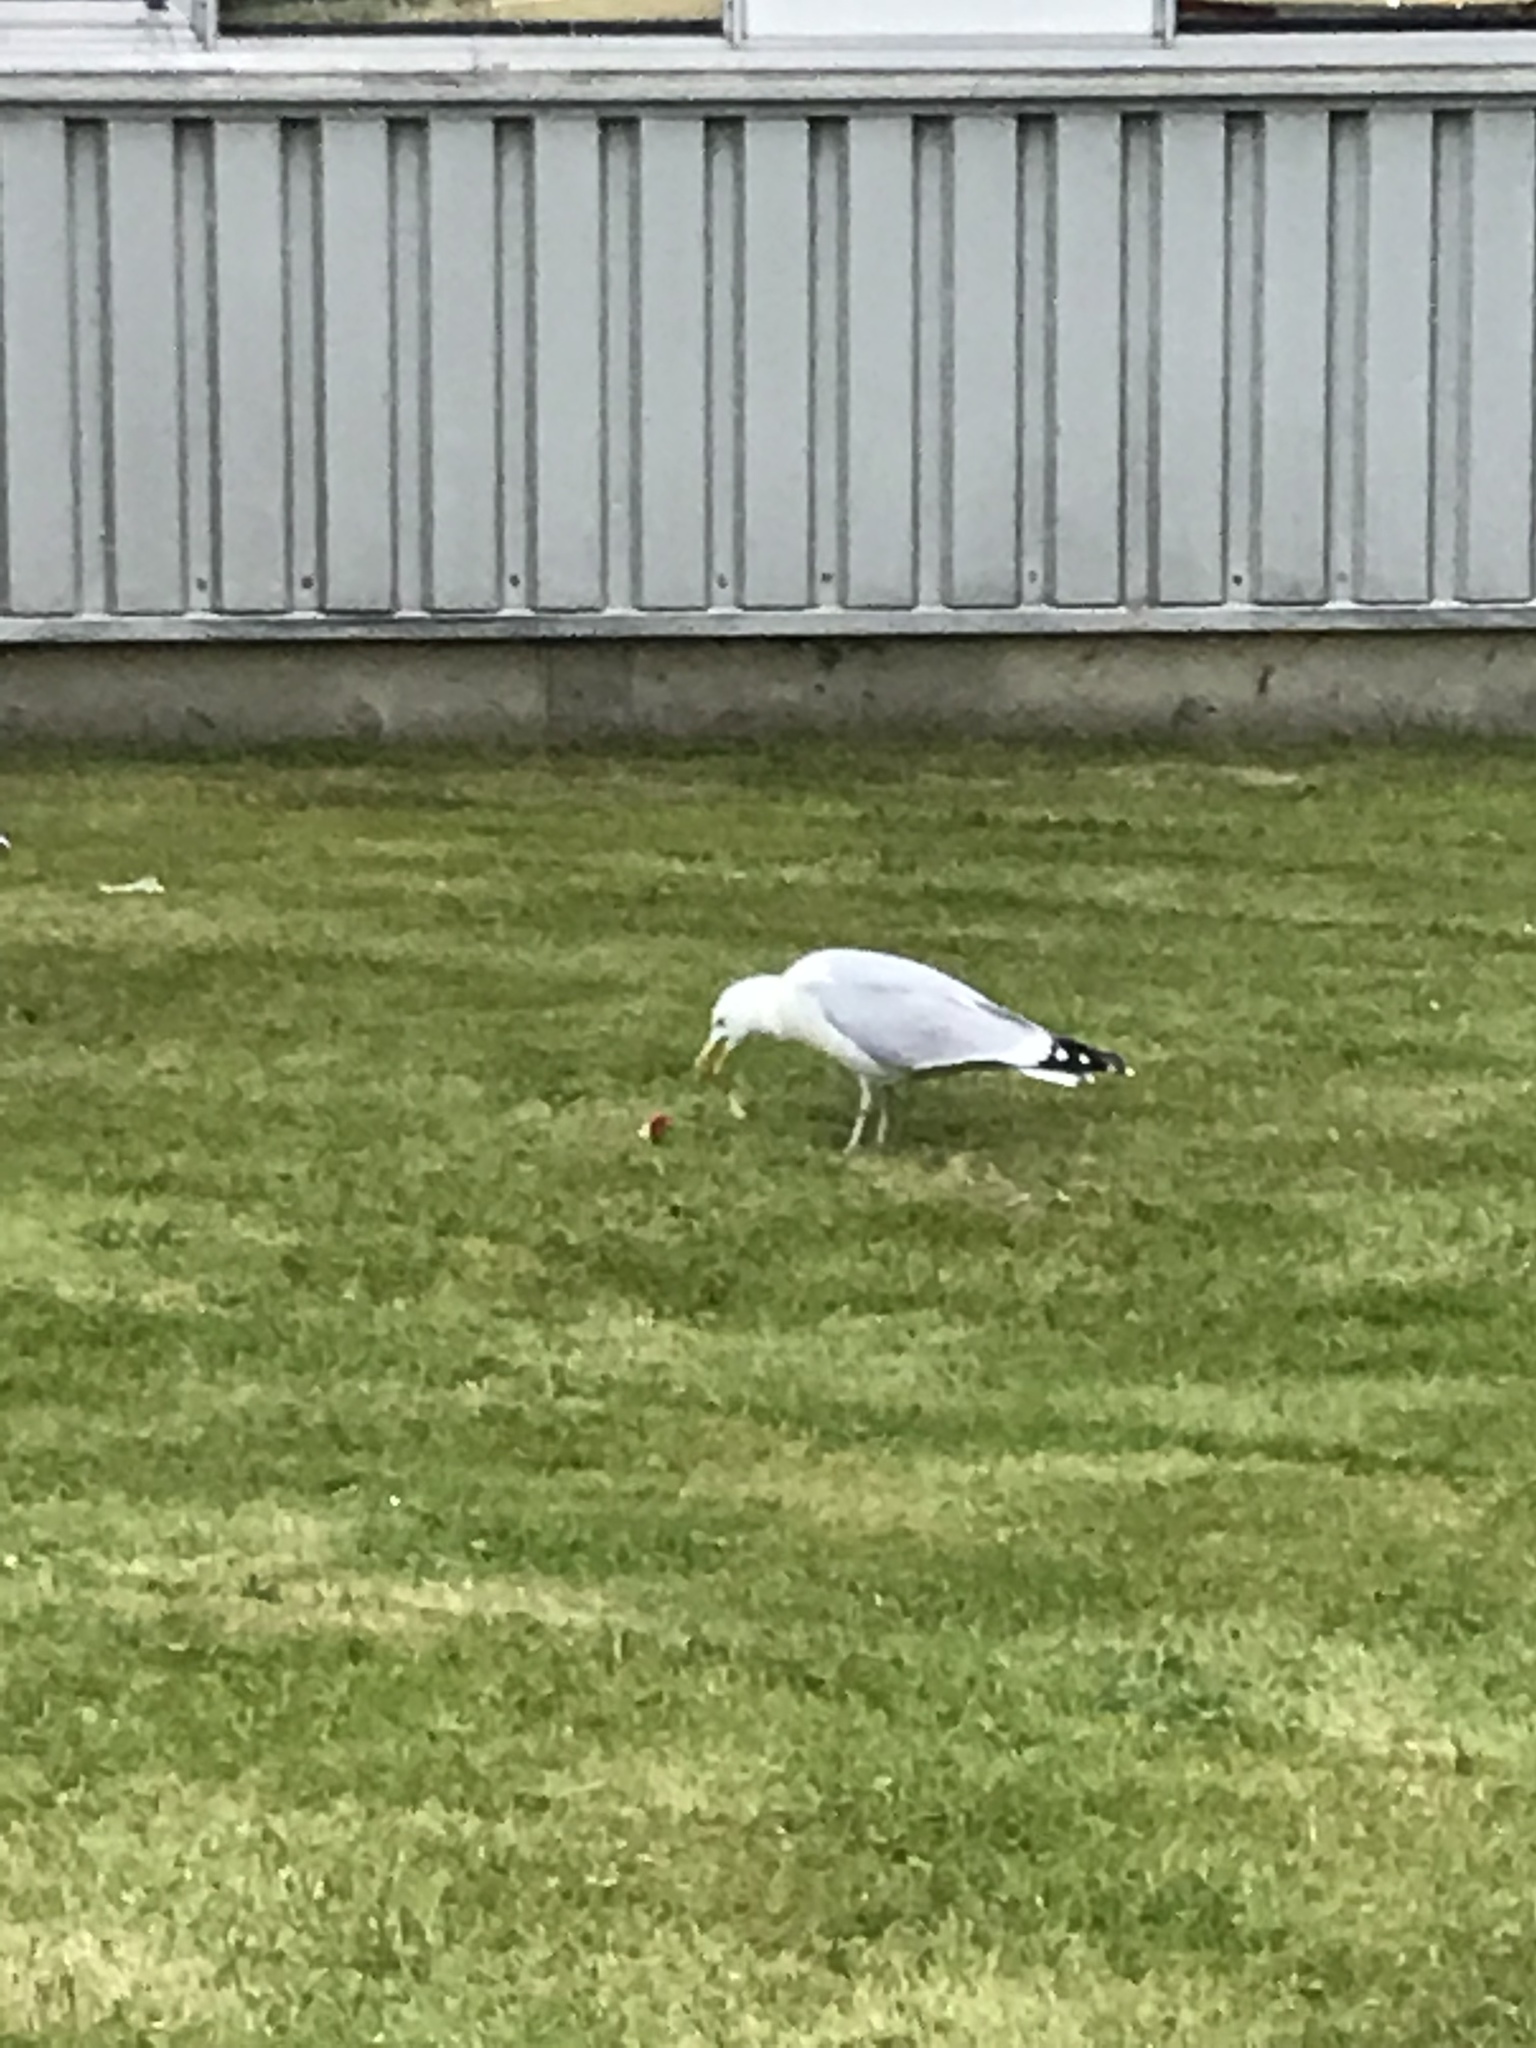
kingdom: Animalia
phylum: Chordata
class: Aves
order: Charadriiformes
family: Laridae
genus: Larus
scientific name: Larus argentatus
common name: Herring gull
